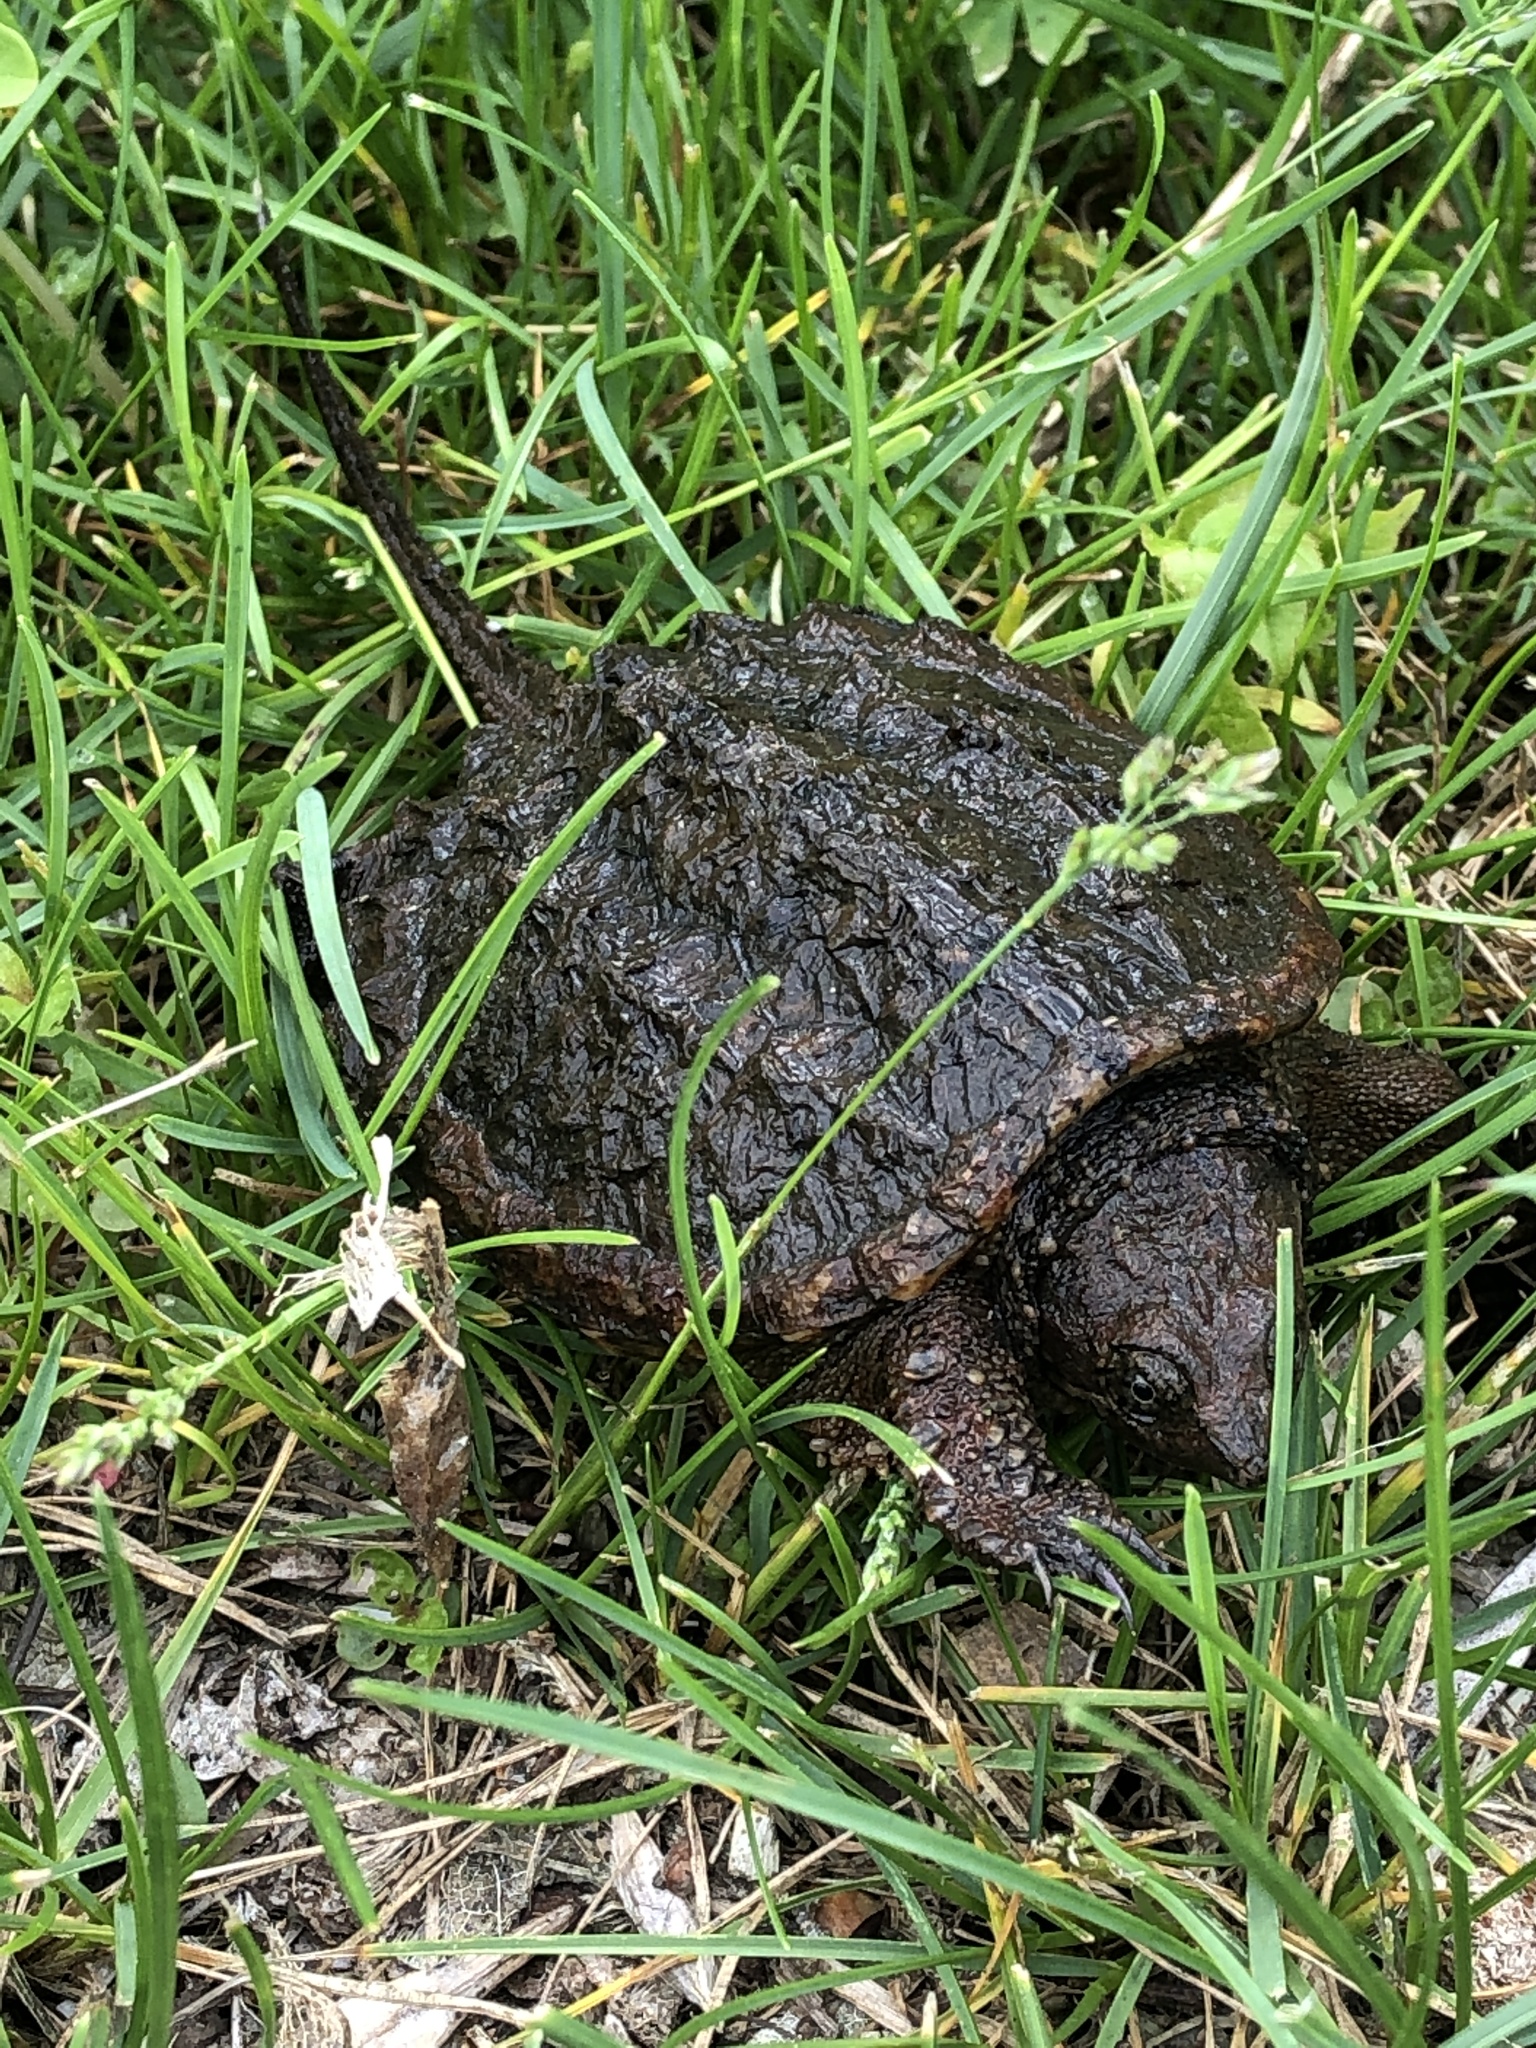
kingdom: Animalia
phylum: Chordata
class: Testudines
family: Chelydridae
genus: Chelydra
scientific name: Chelydra serpentina
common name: Common snapping turtle
